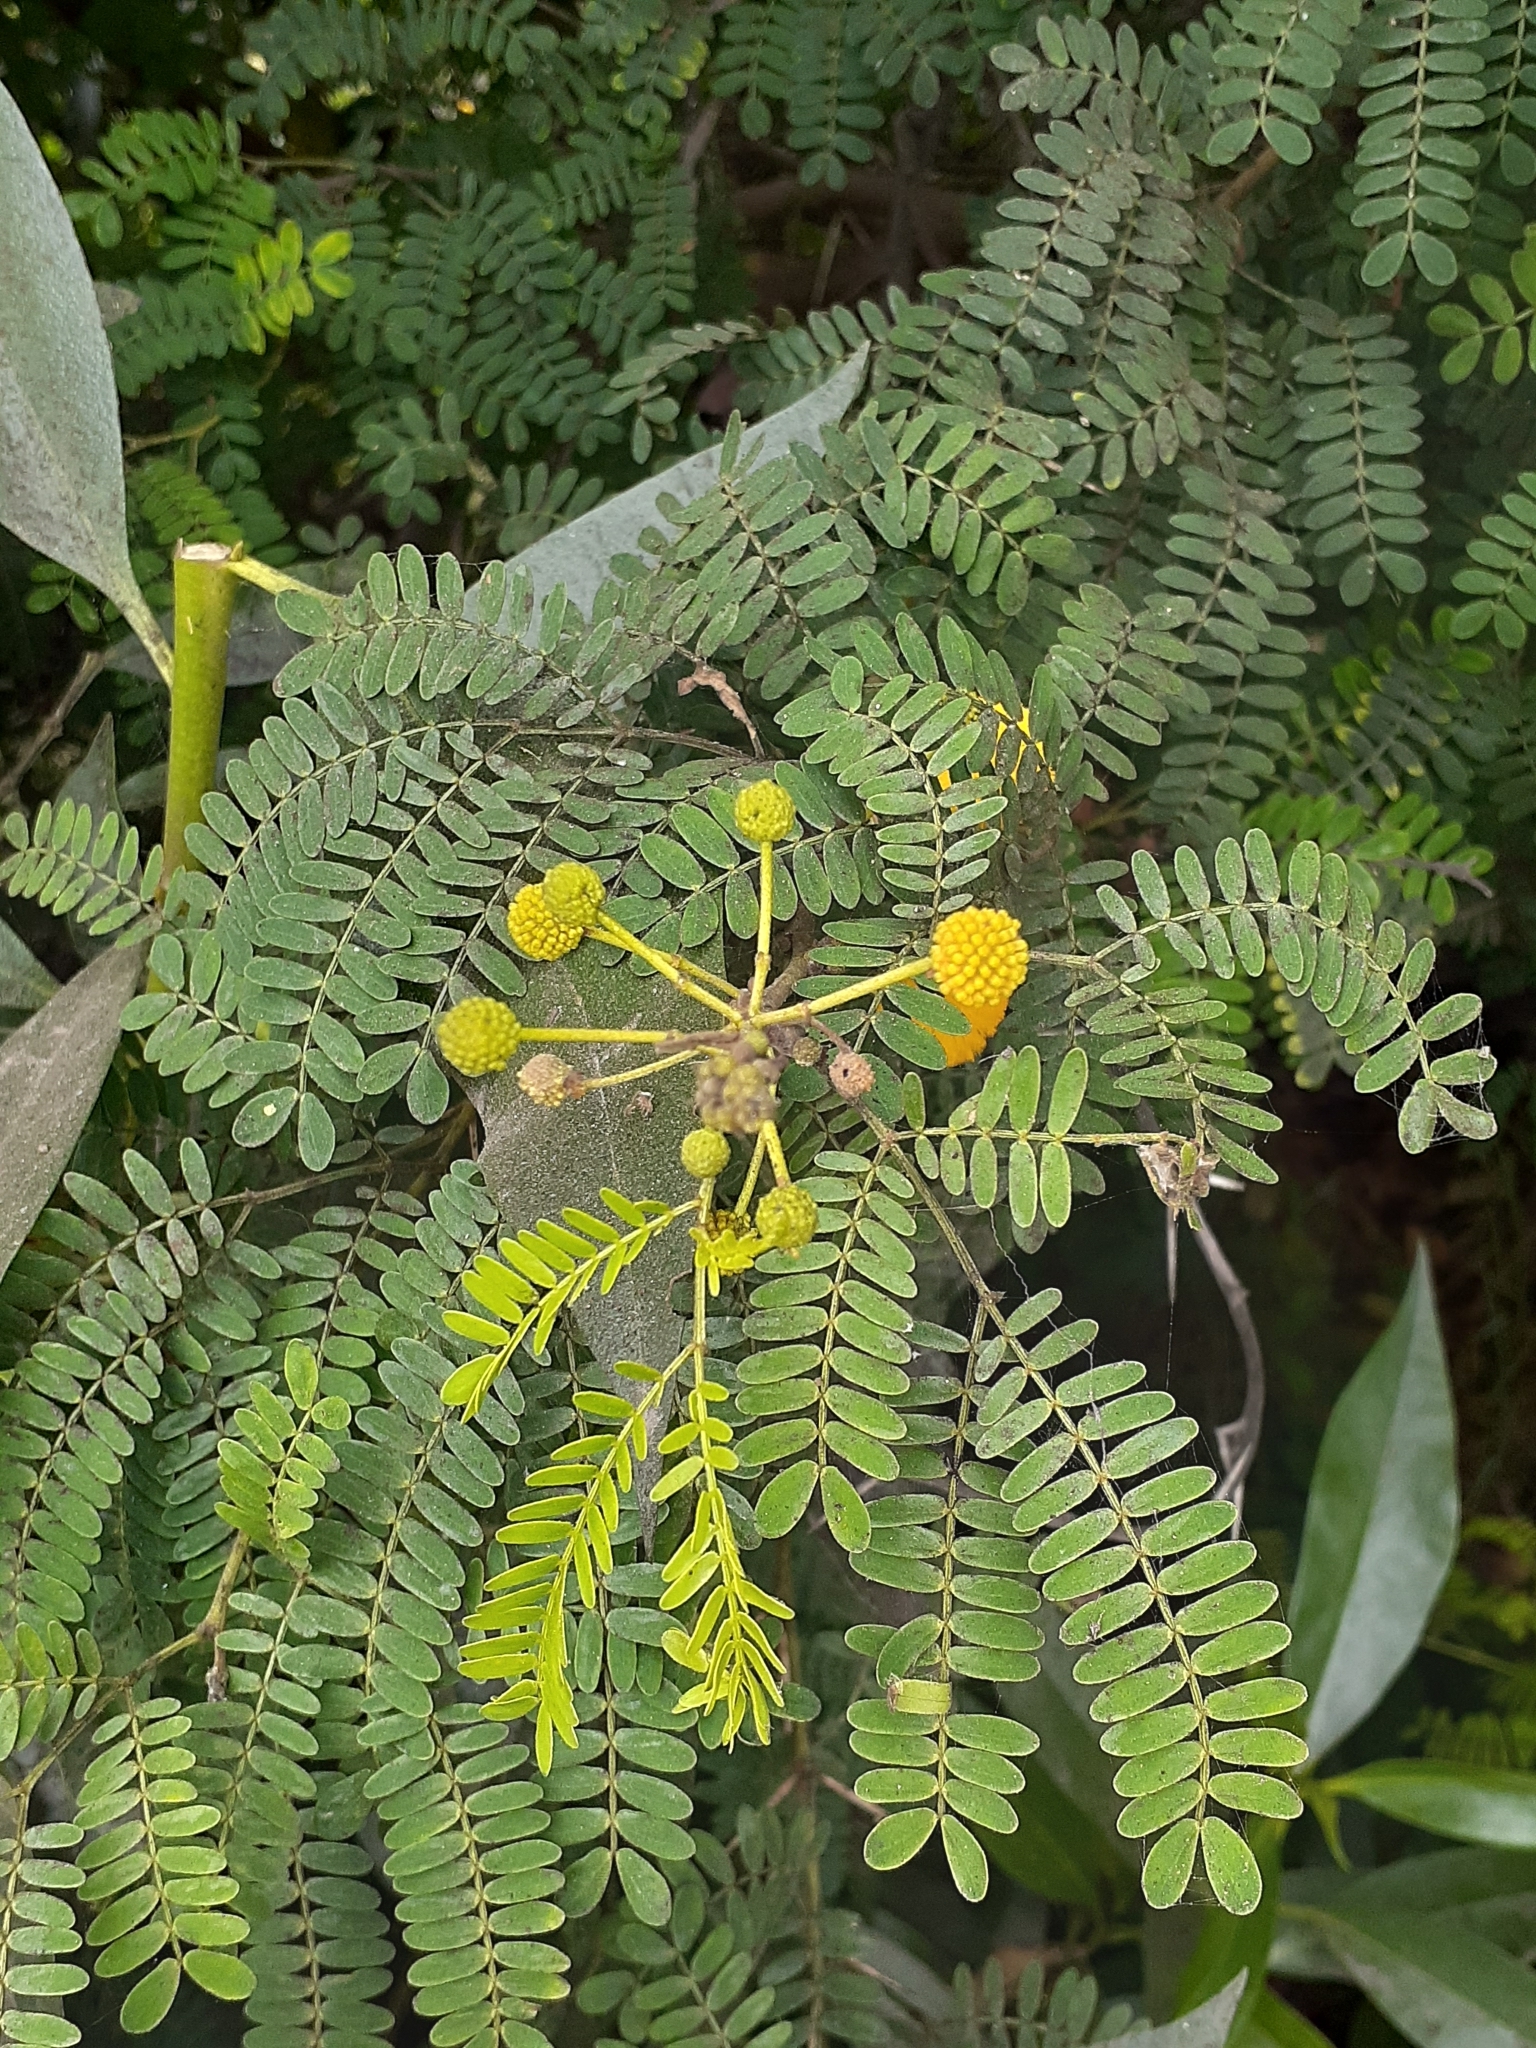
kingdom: Plantae
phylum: Tracheophyta
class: Magnoliopsida
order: Fabales
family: Fabaceae
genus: Leucaena
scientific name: Leucaena leucocephala
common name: White leadtree
